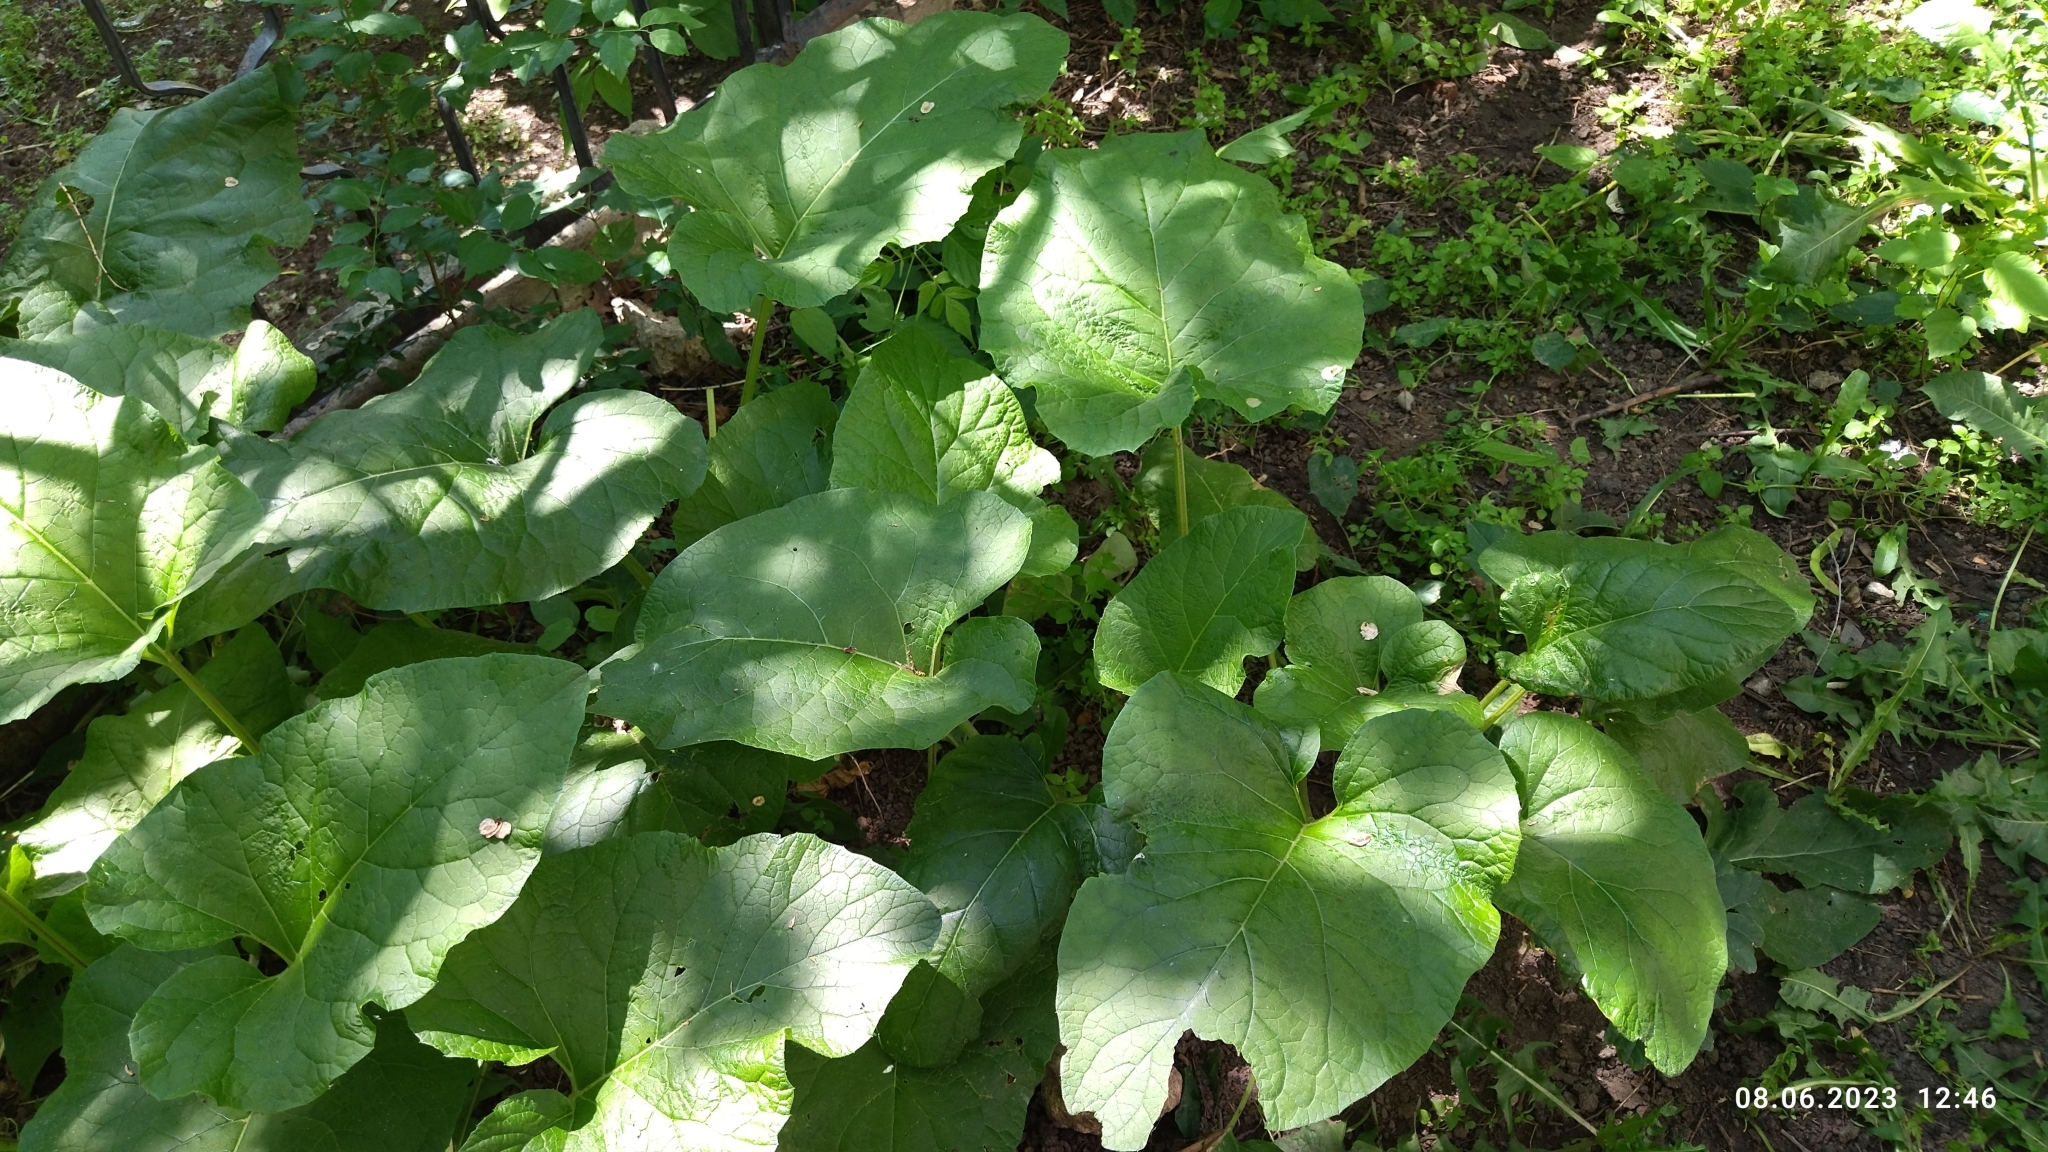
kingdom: Plantae
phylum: Tracheophyta
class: Magnoliopsida
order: Asterales
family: Asteraceae
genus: Arctium
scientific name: Arctium
